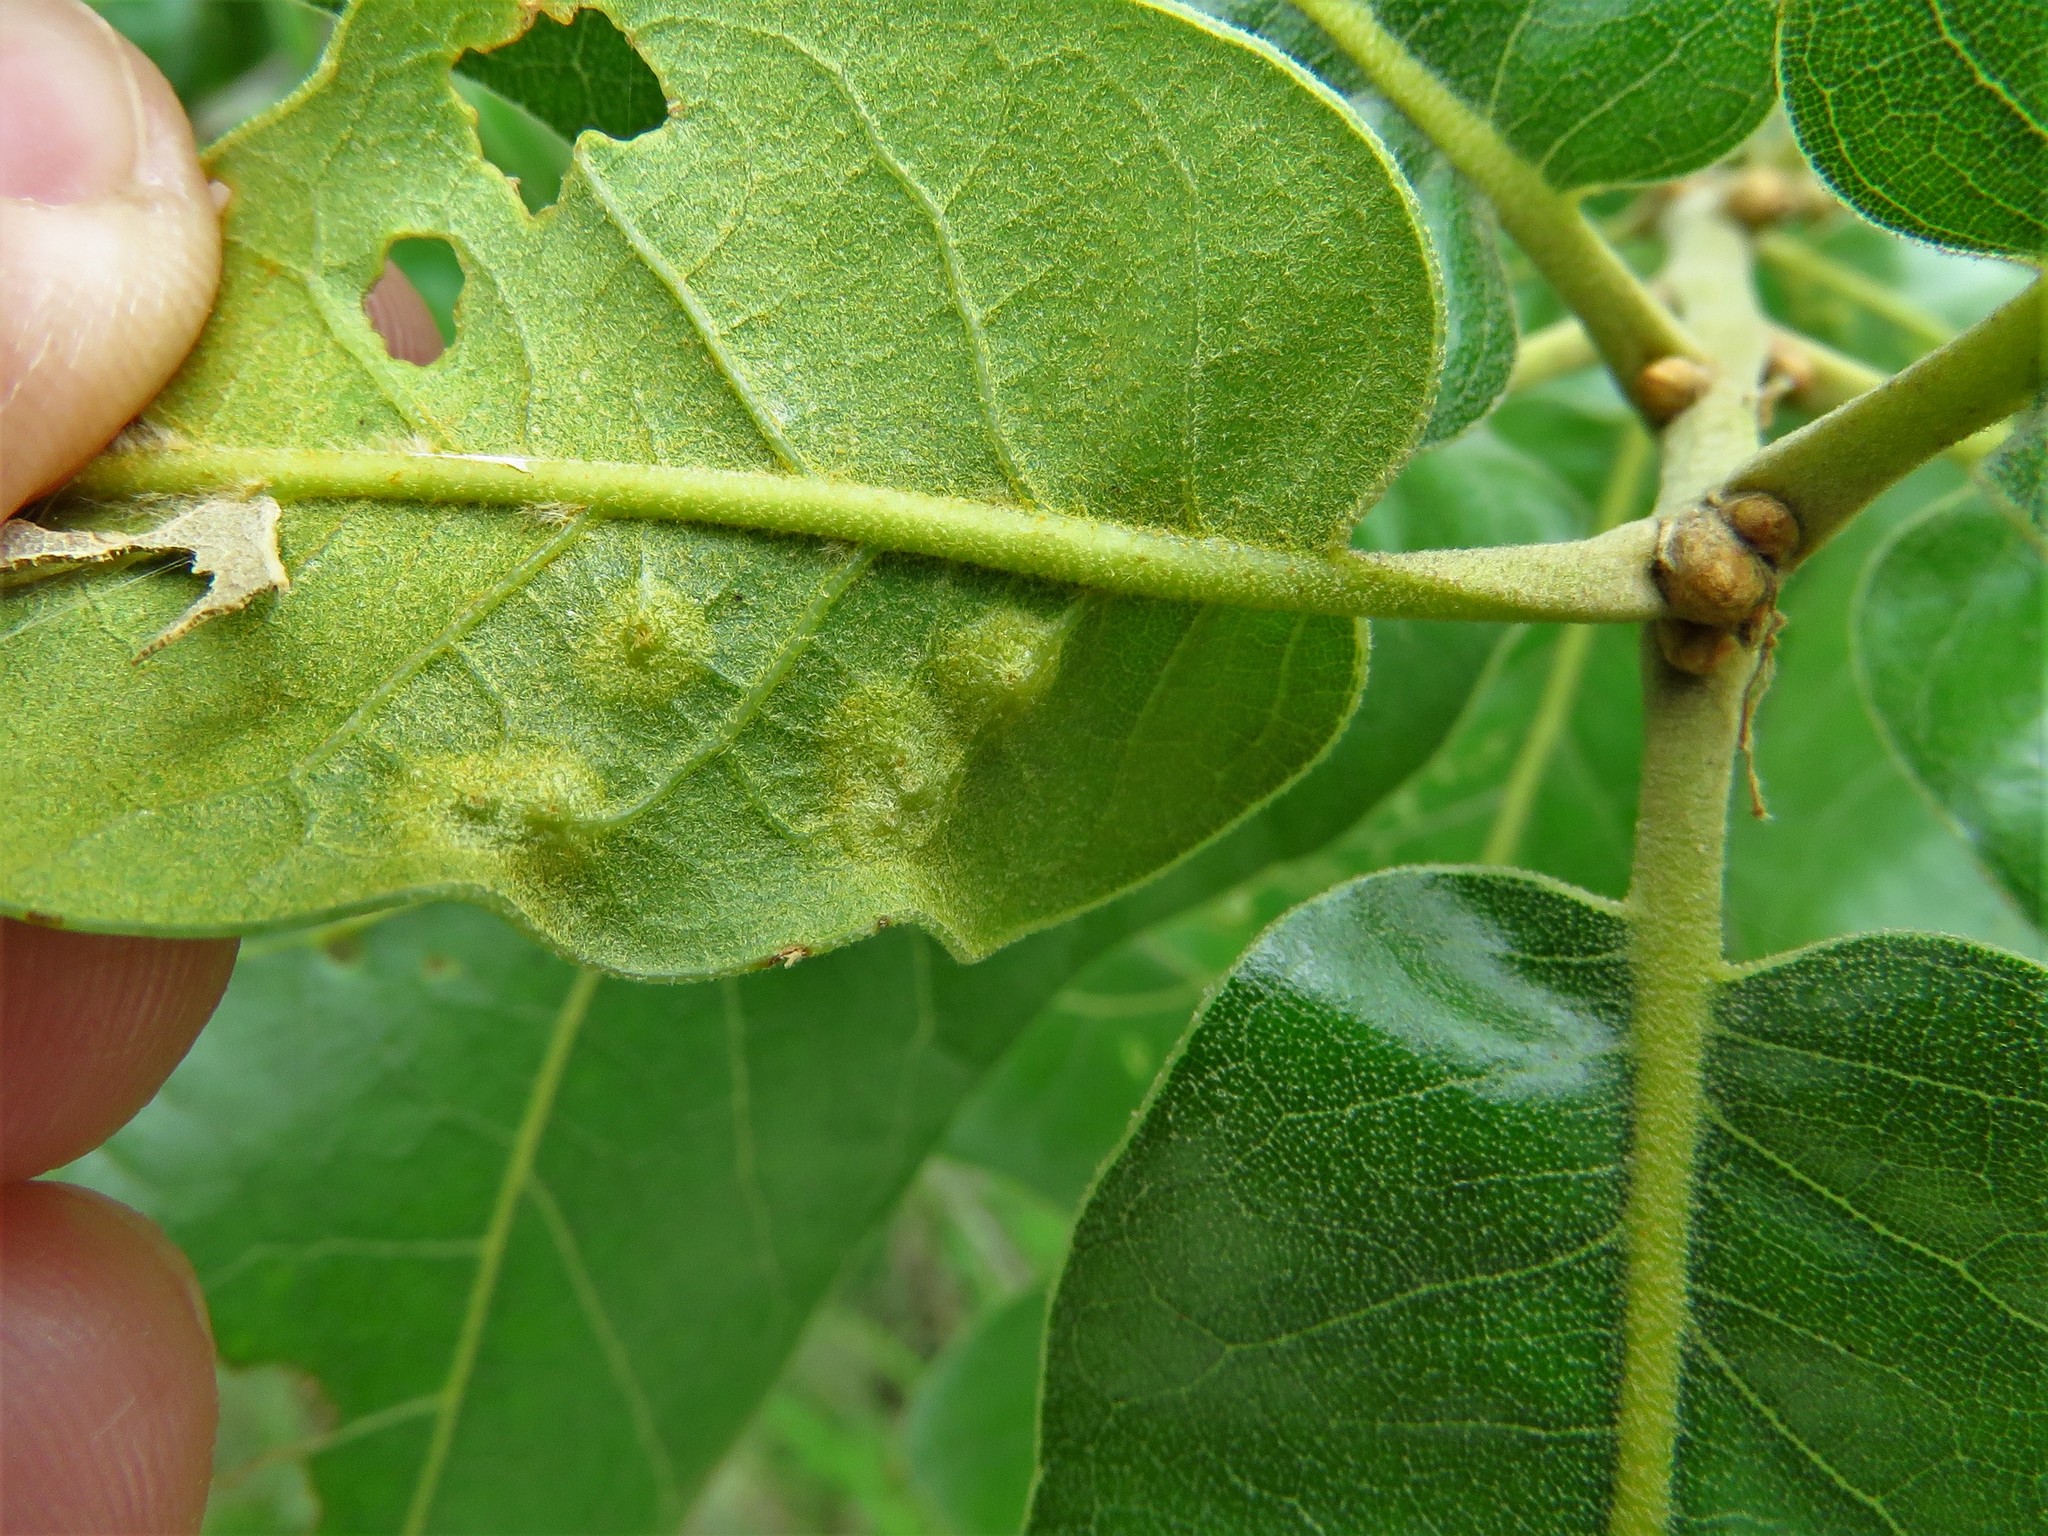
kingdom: Animalia
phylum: Arthropoda
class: Insecta
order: Diptera
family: Cecidomyiidae
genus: Polystepha
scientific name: Polystepha pilulae
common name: Oak leaf gall midge
